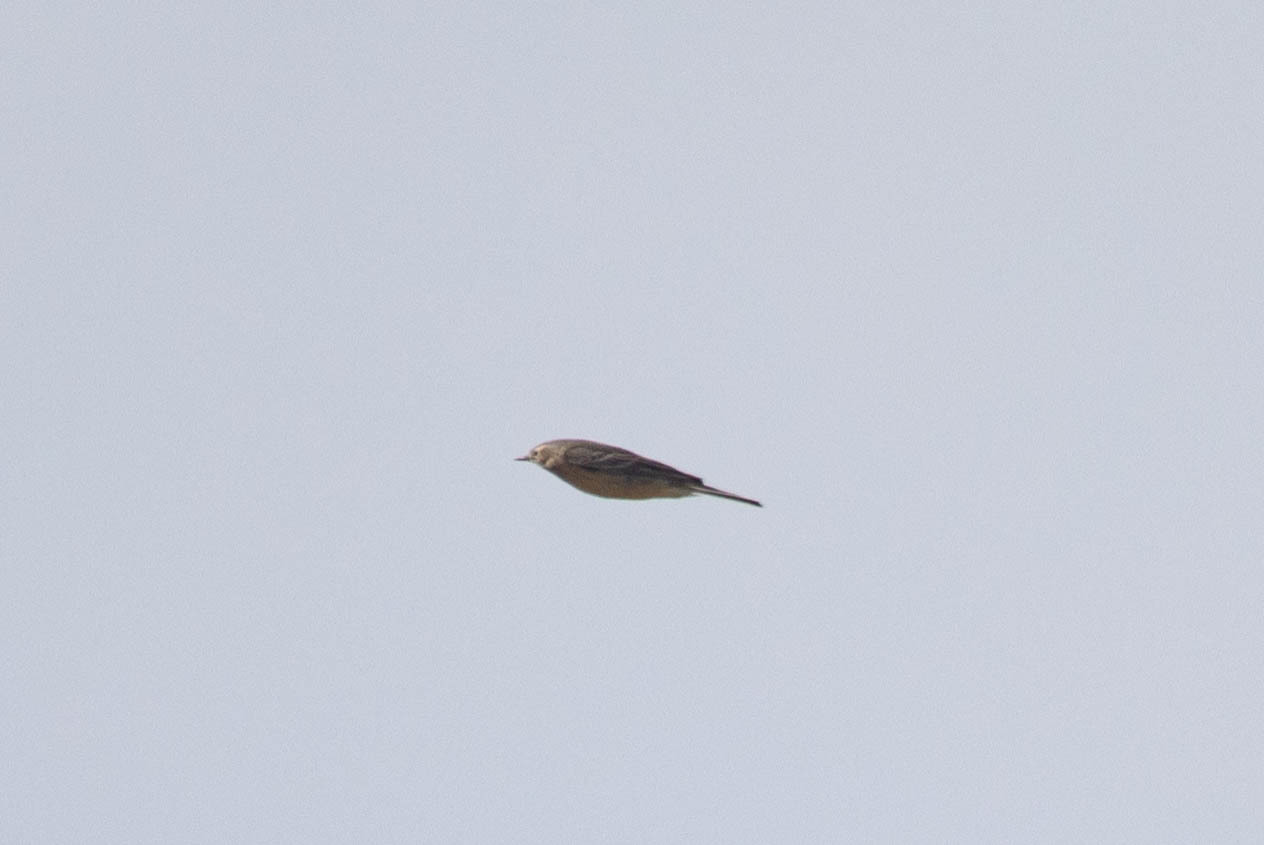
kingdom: Animalia
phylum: Chordata
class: Aves
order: Passeriformes
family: Motacillidae
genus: Anthus
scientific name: Anthus rubescens
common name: Buff-bellied pipit
